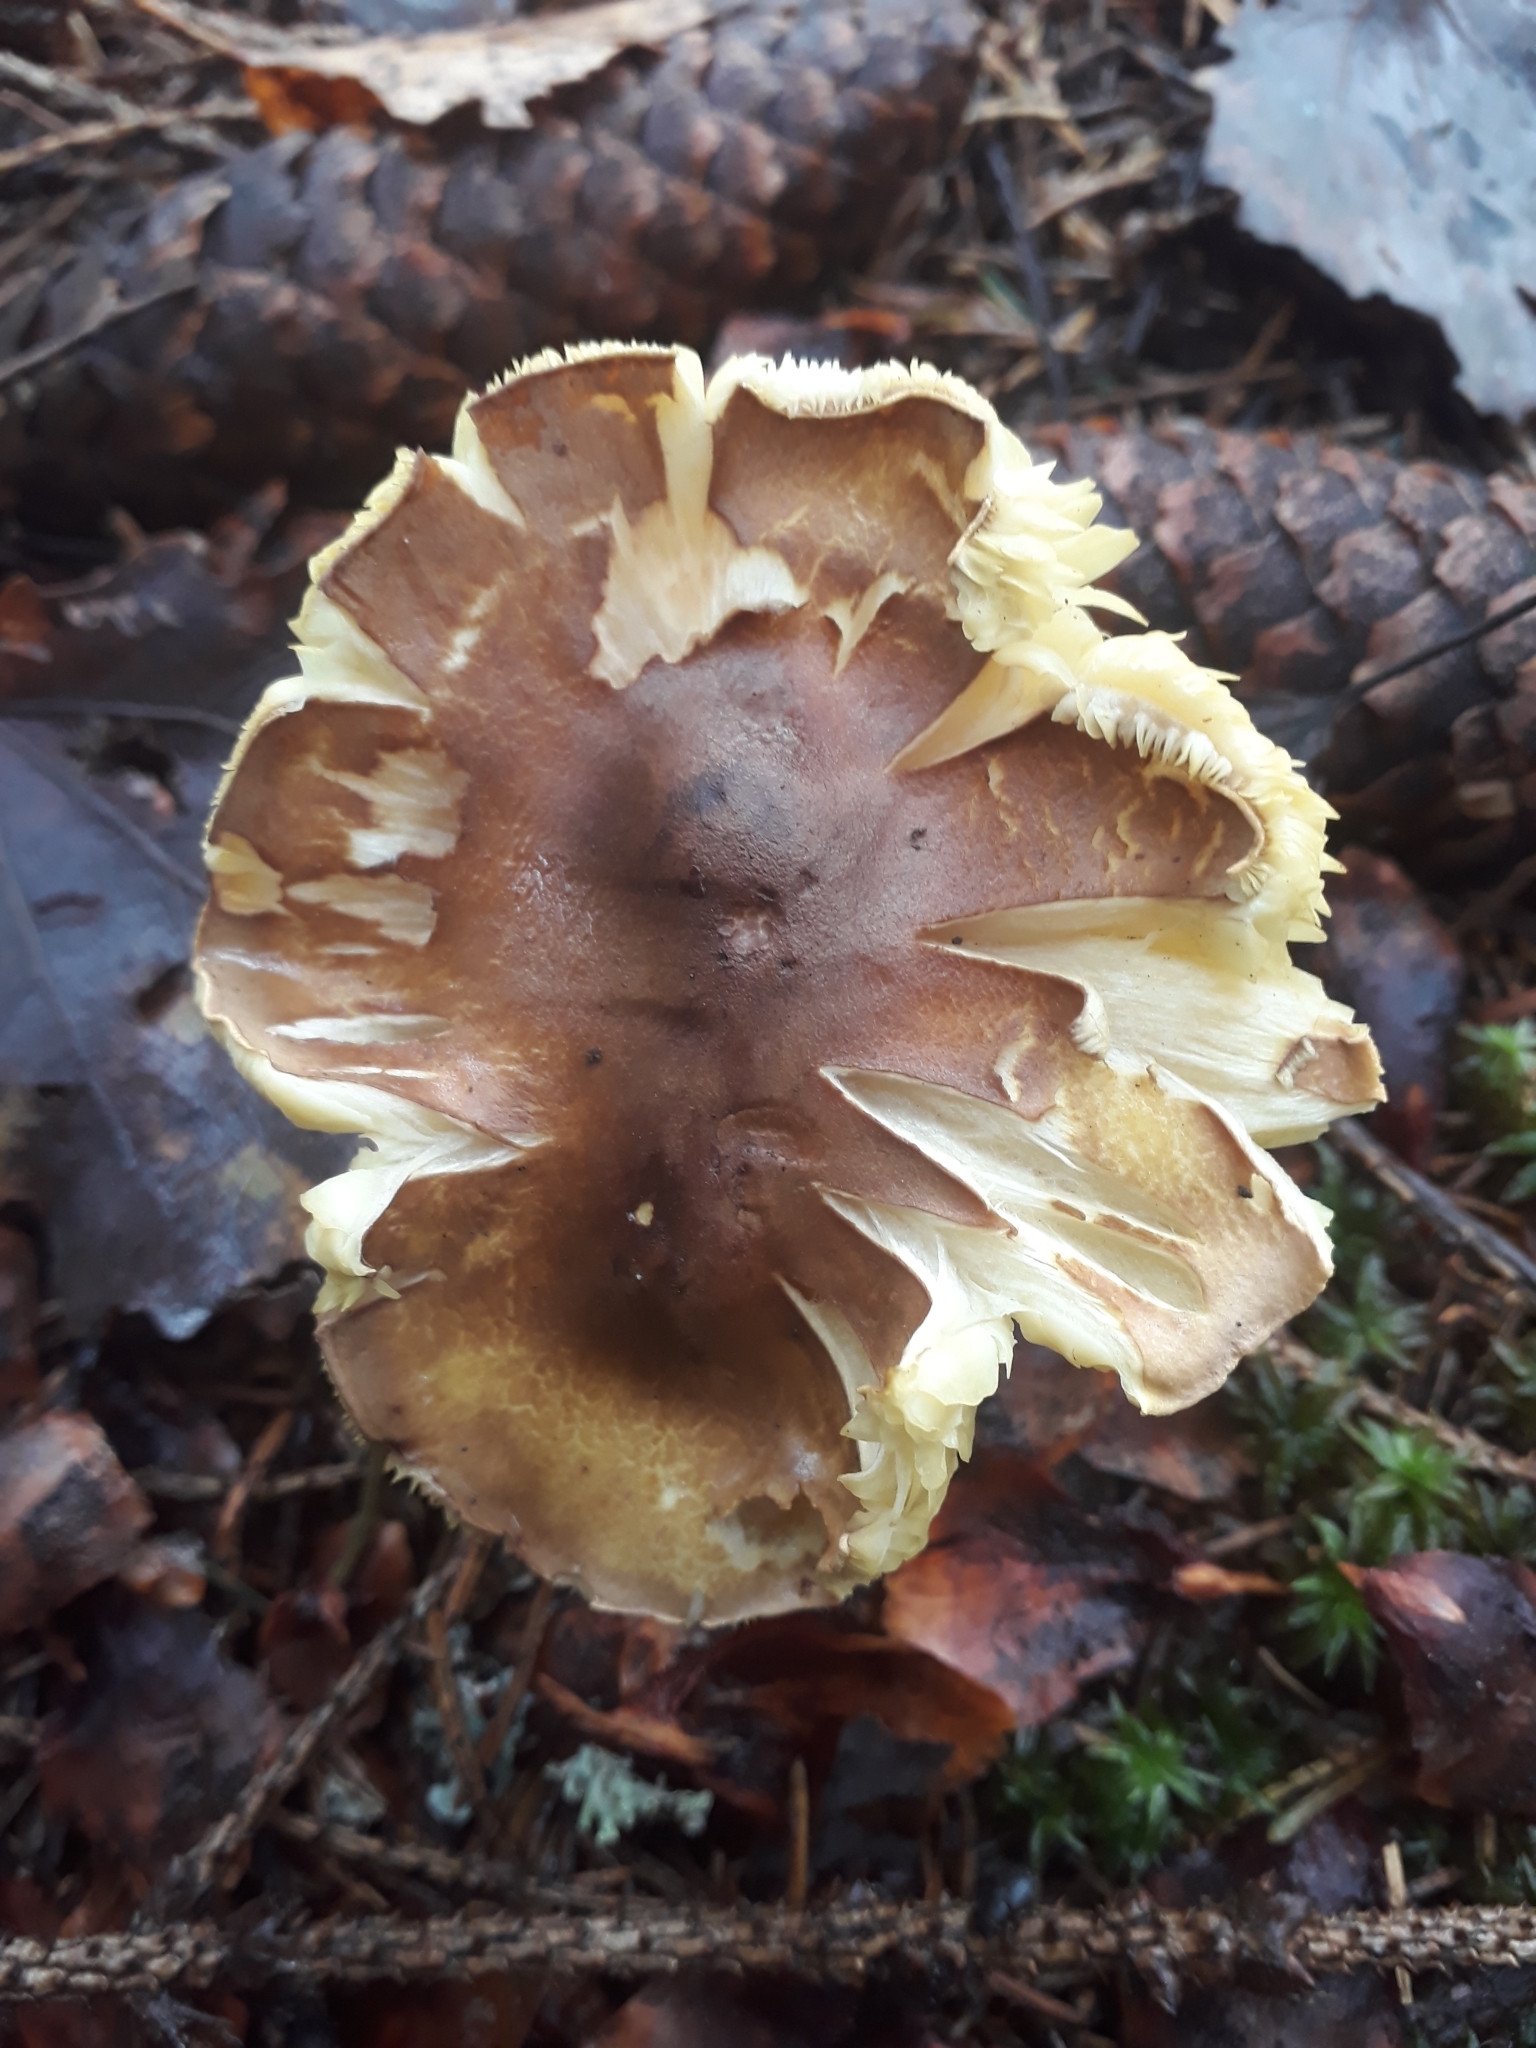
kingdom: Fungi
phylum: Basidiomycota
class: Agaricomycetes
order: Agaricales
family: Tricholomataceae
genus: Tricholoma
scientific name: Tricholoma saponaceum
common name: Soapy trich
